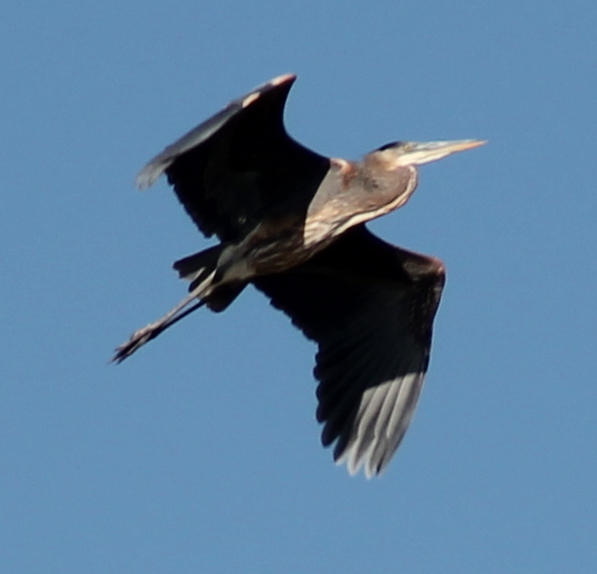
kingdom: Animalia
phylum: Chordata
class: Aves
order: Pelecaniformes
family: Ardeidae
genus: Ardea
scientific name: Ardea herodias
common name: Great blue heron
